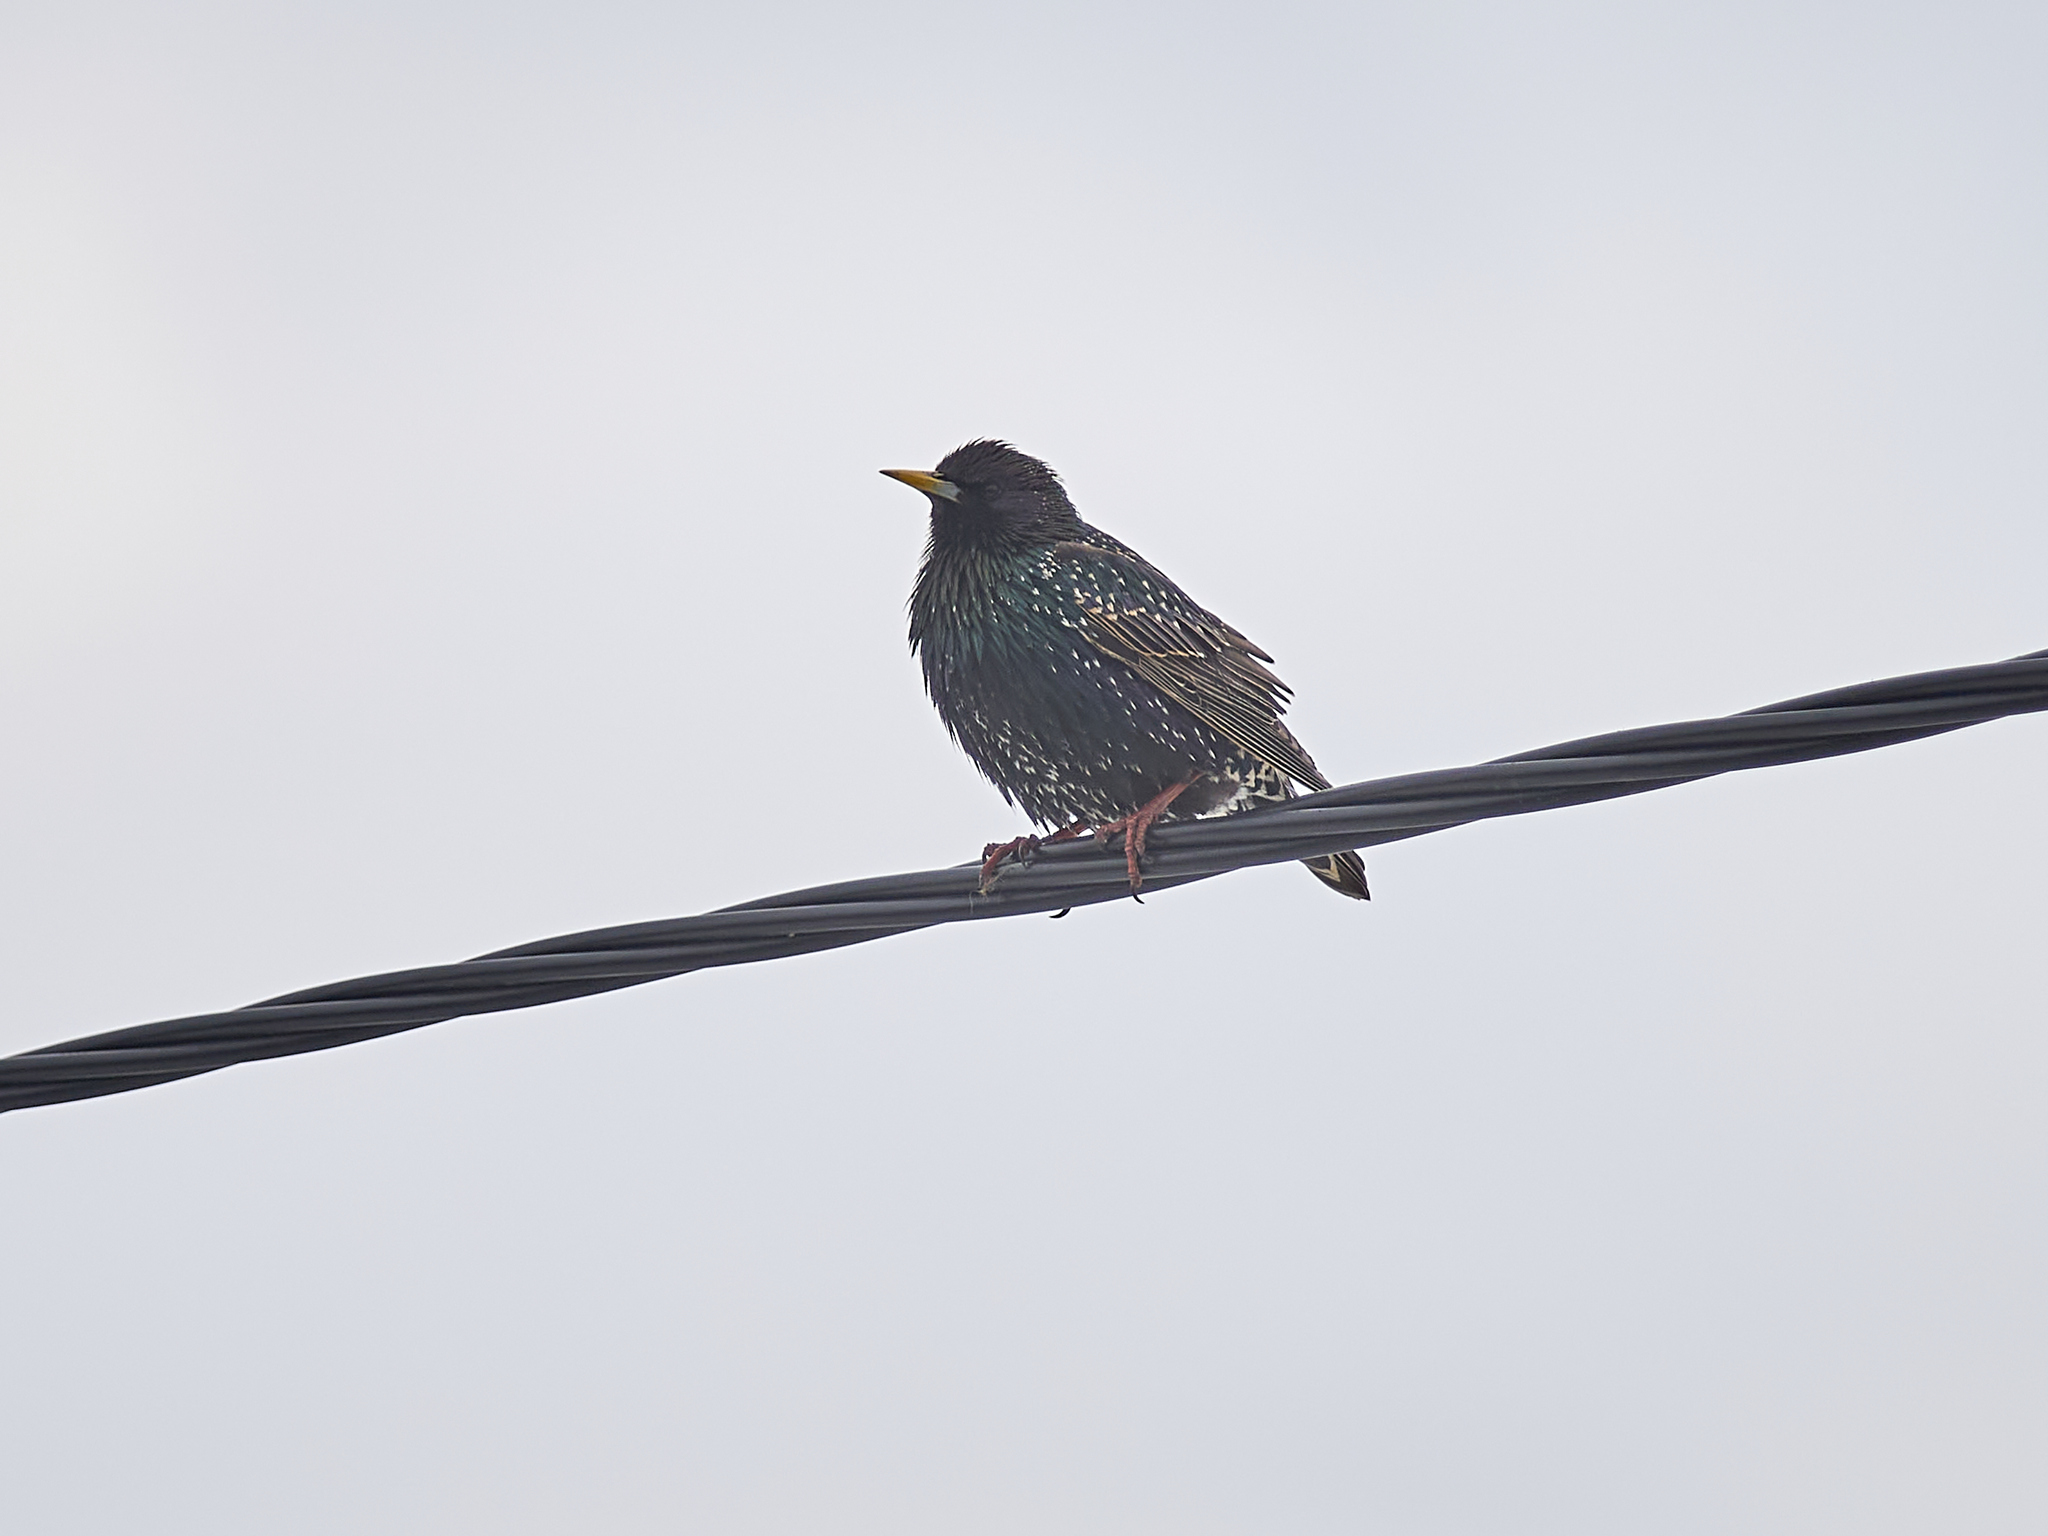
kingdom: Animalia
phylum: Chordata
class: Aves
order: Passeriformes
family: Sturnidae
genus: Sturnus
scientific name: Sturnus vulgaris
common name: Common starling
